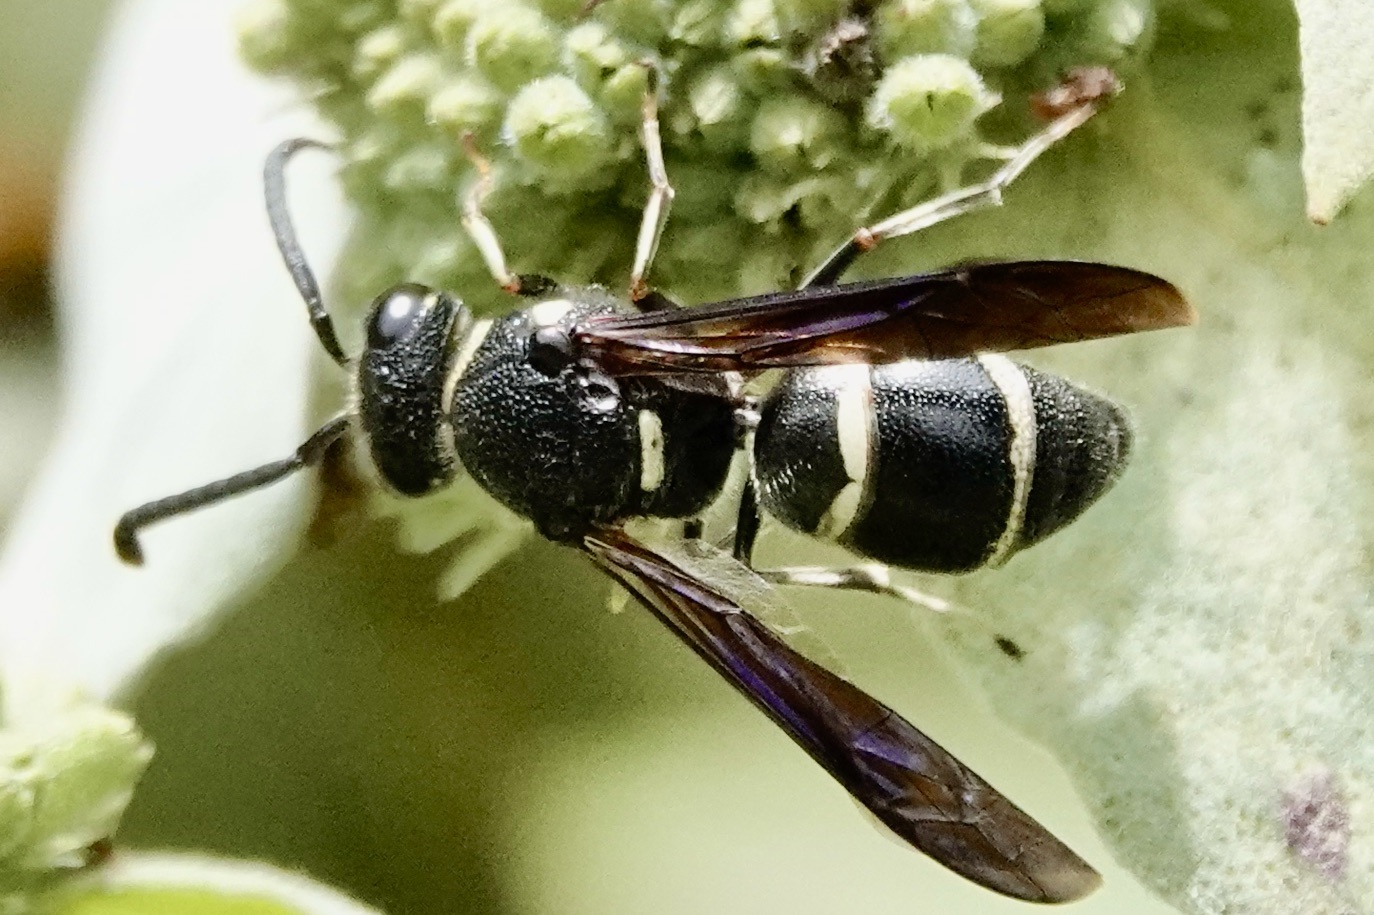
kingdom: Animalia
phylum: Arthropoda
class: Insecta
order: Hymenoptera
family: Eumenidae
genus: Euodynerus
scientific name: Euodynerus schwarzi
